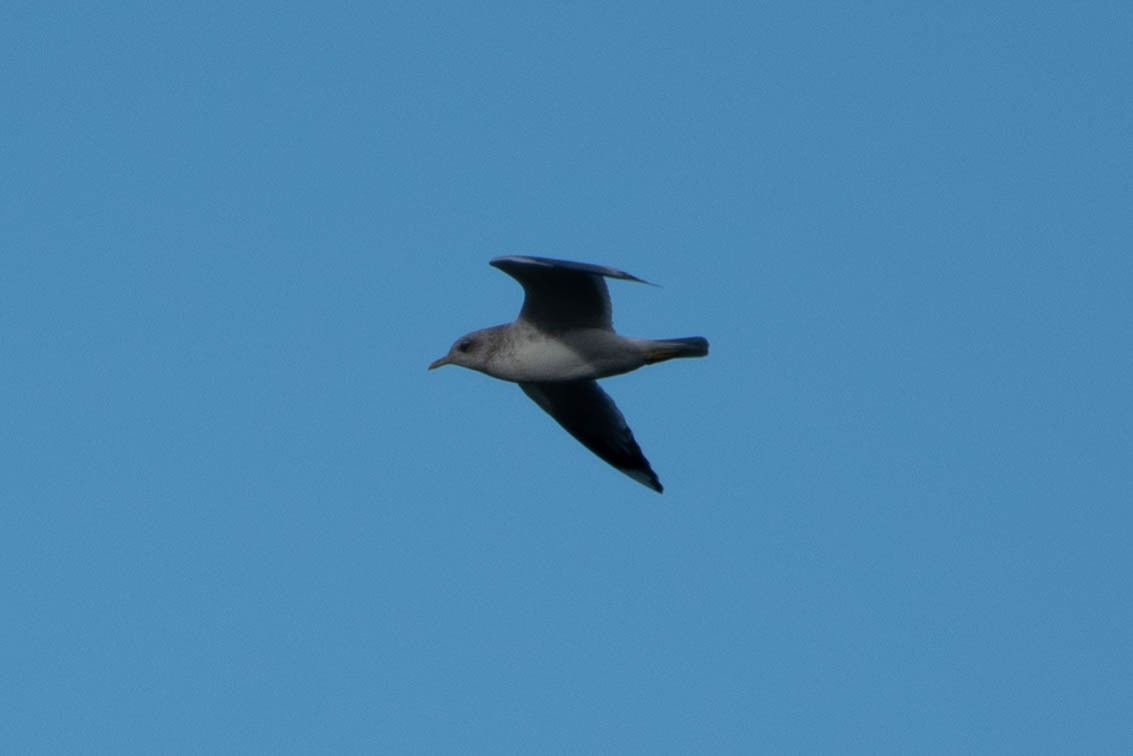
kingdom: Animalia
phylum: Chordata
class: Aves
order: Charadriiformes
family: Laridae
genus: Larus
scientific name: Larus brachyrhynchus
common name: Short-billed gull
